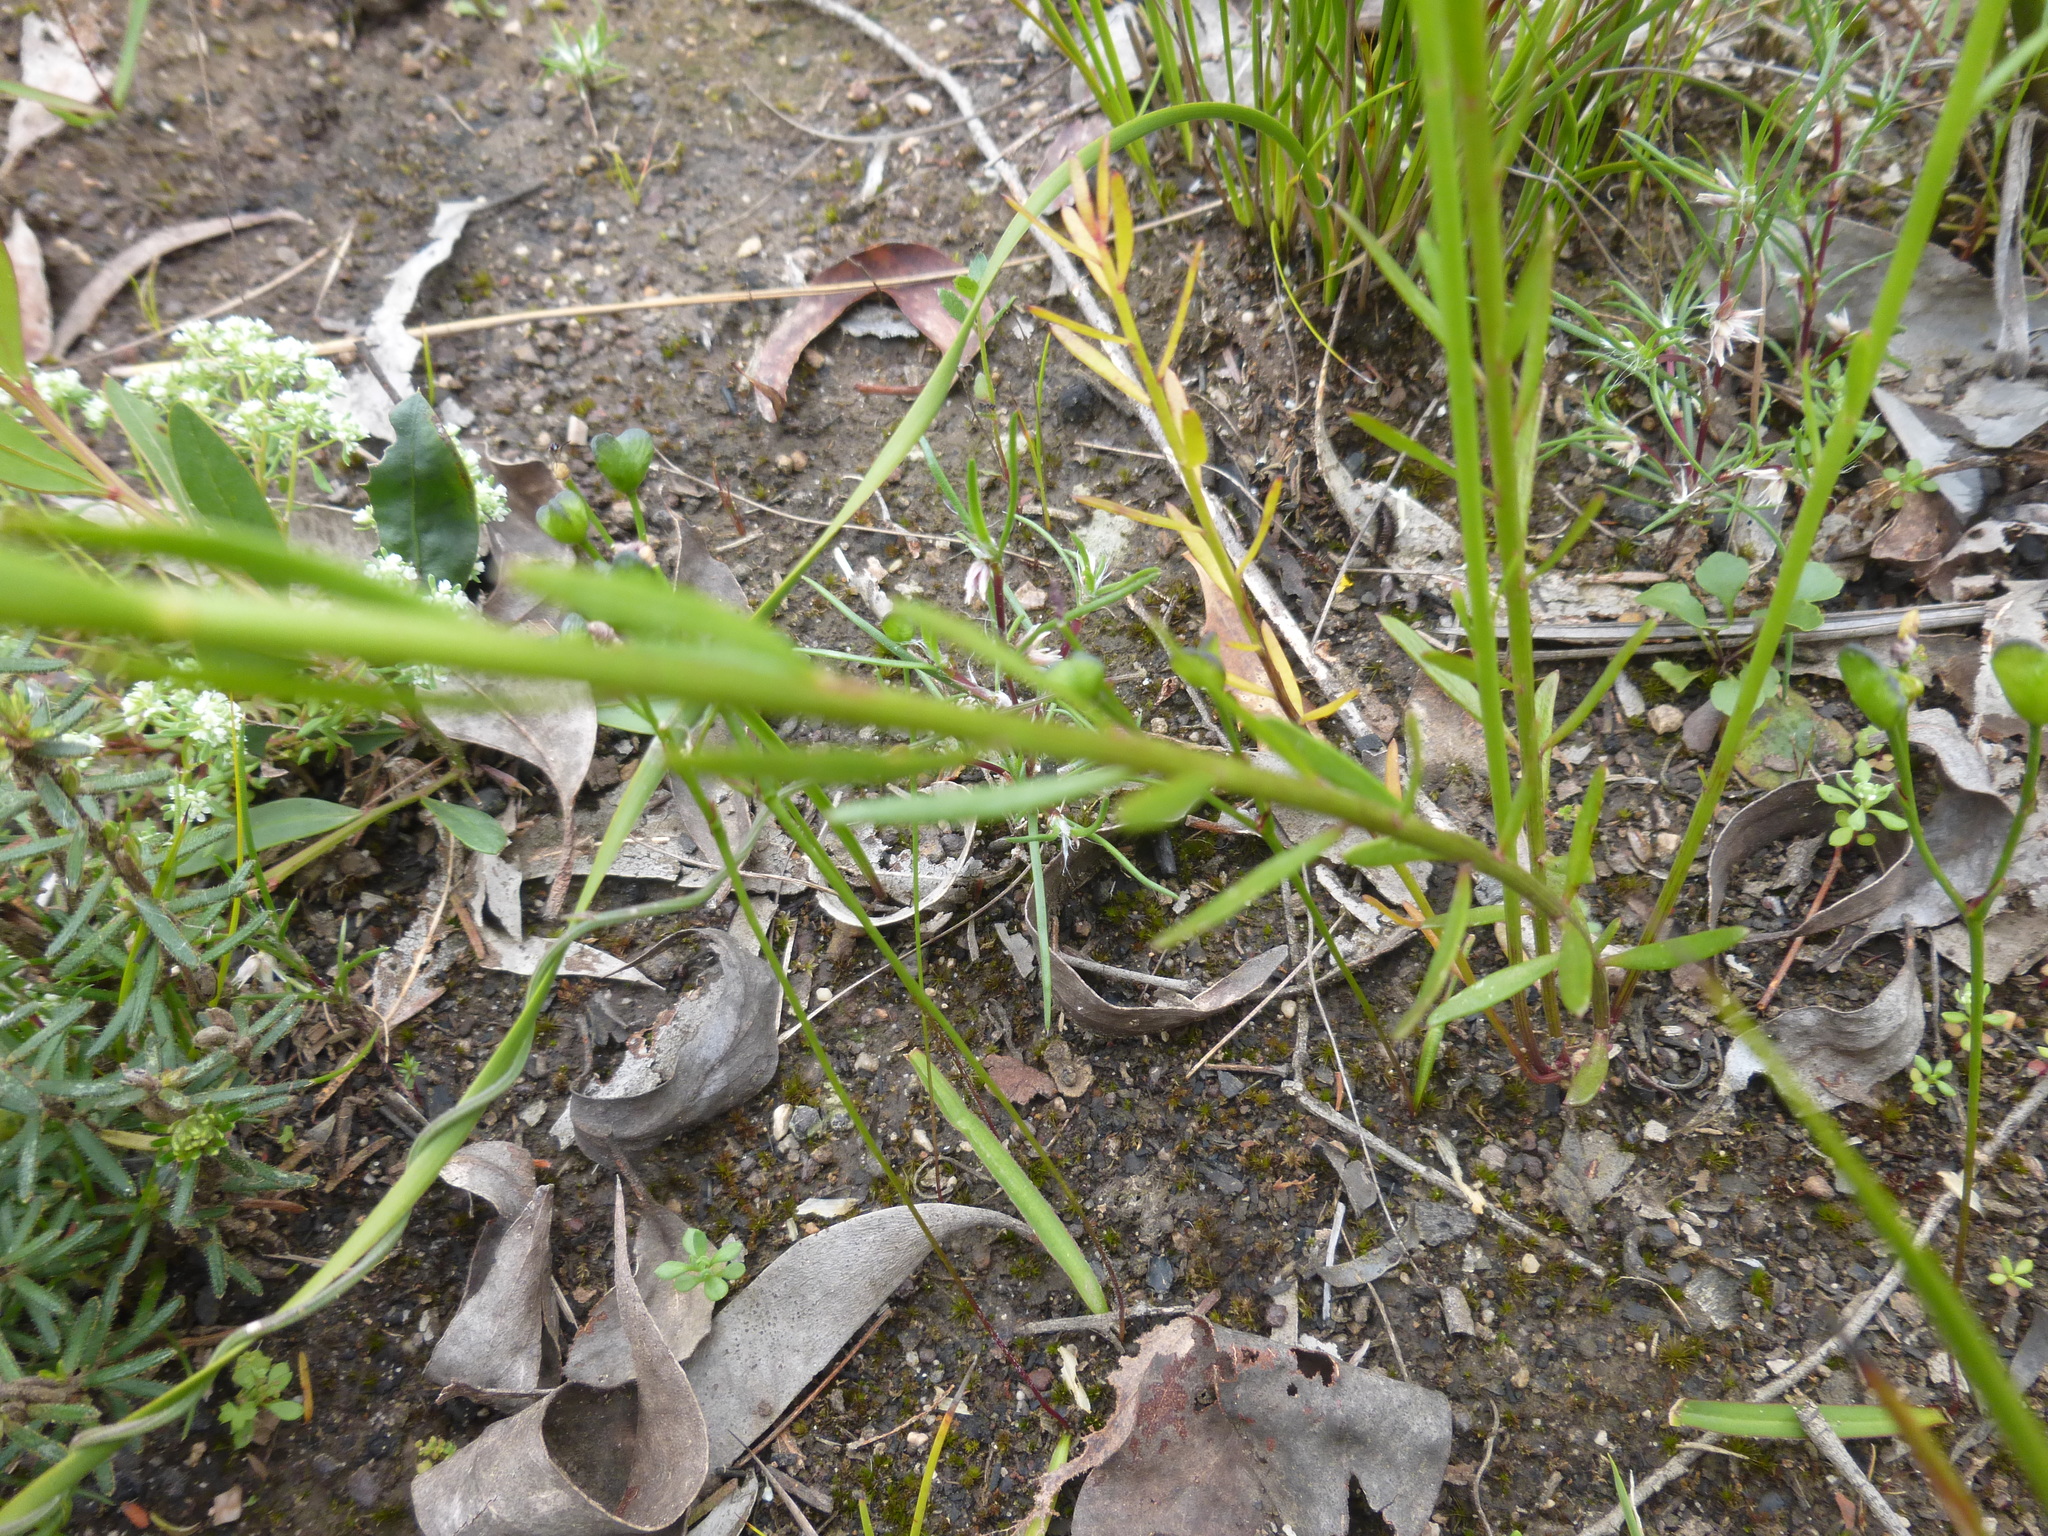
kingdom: Plantae
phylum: Tracheophyta
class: Magnoliopsida
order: Celastrales
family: Celastraceae
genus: Stackhousia
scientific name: Stackhousia monogyna
